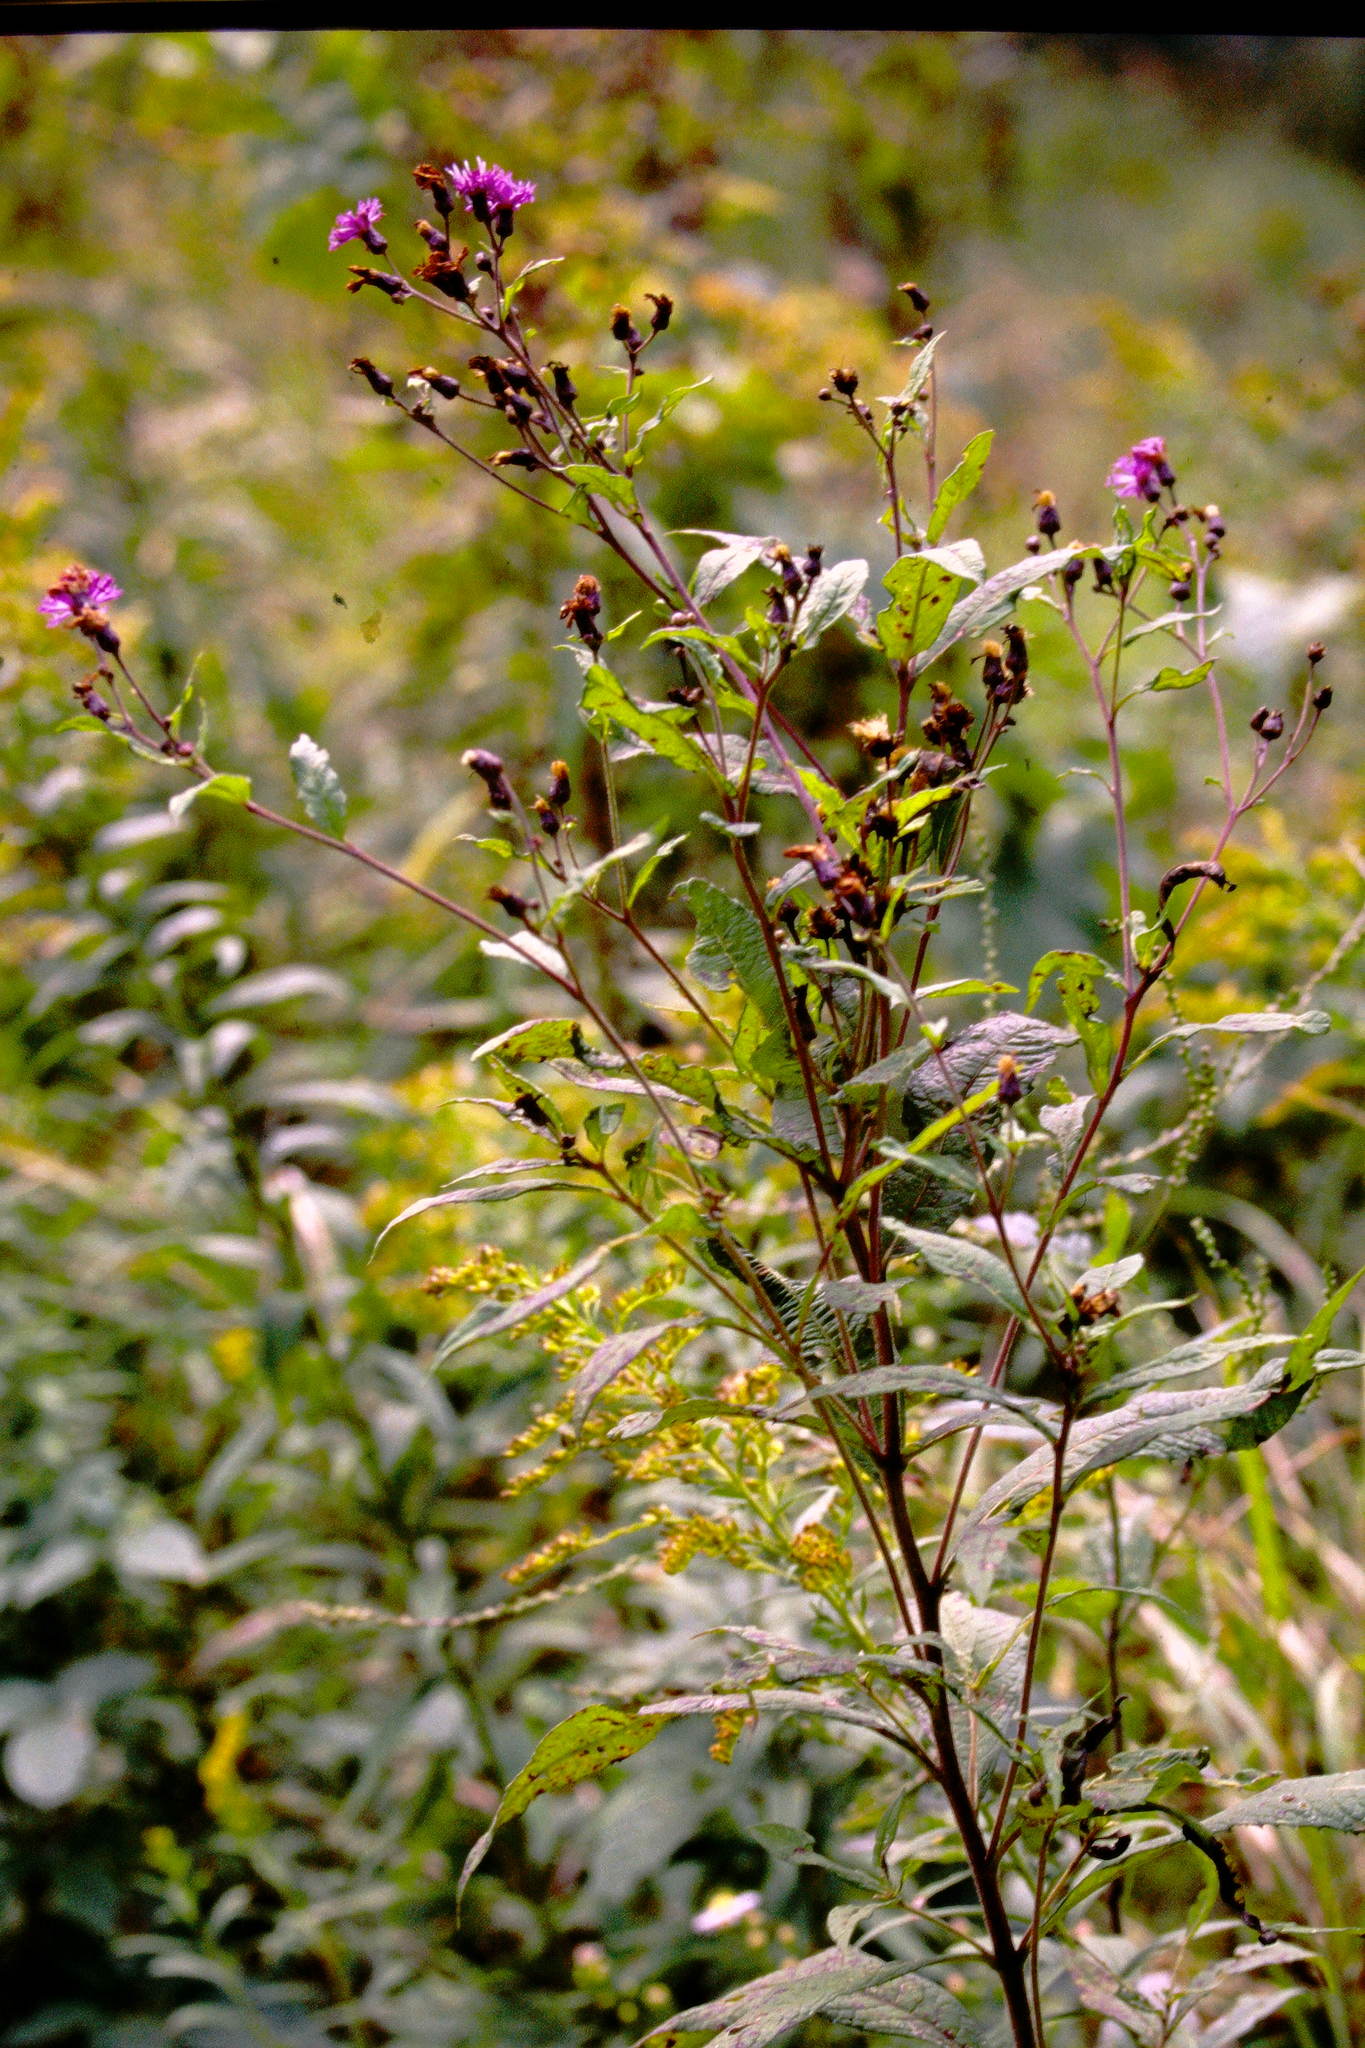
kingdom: Plantae
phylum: Tracheophyta
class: Magnoliopsida
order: Asterales
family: Asteraceae
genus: Vernonia
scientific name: Vernonia gigantea
